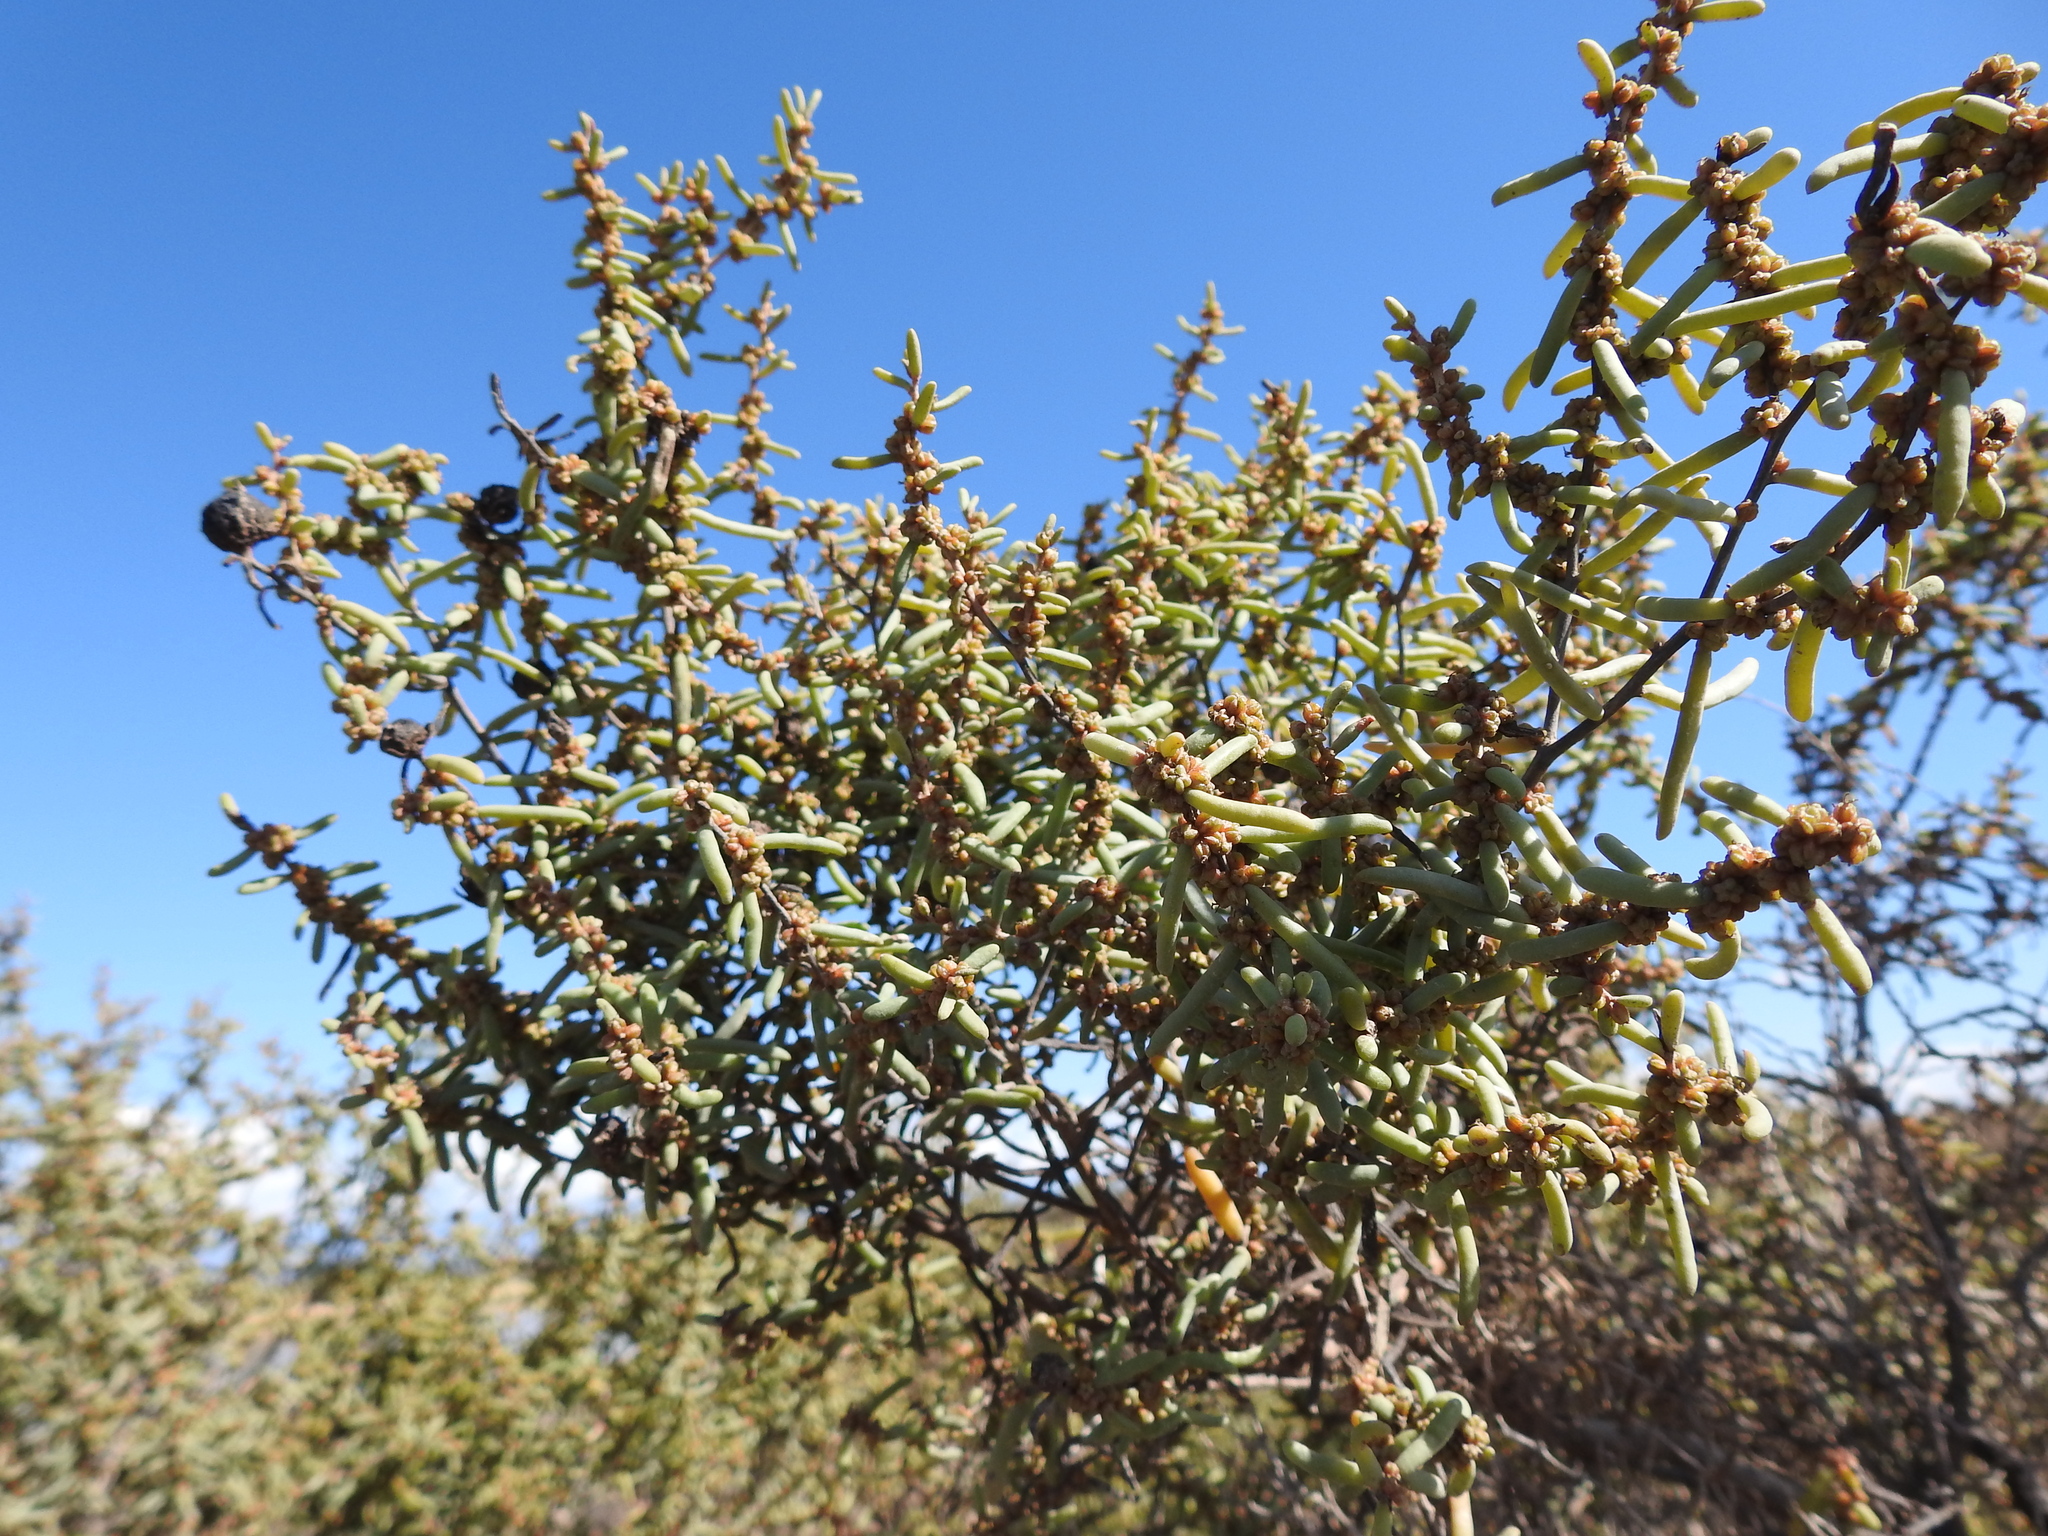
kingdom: Plantae
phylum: Tracheophyta
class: Magnoliopsida
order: Caryophyllales
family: Amaranthaceae
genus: Suaeda
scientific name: Suaeda divaricata
